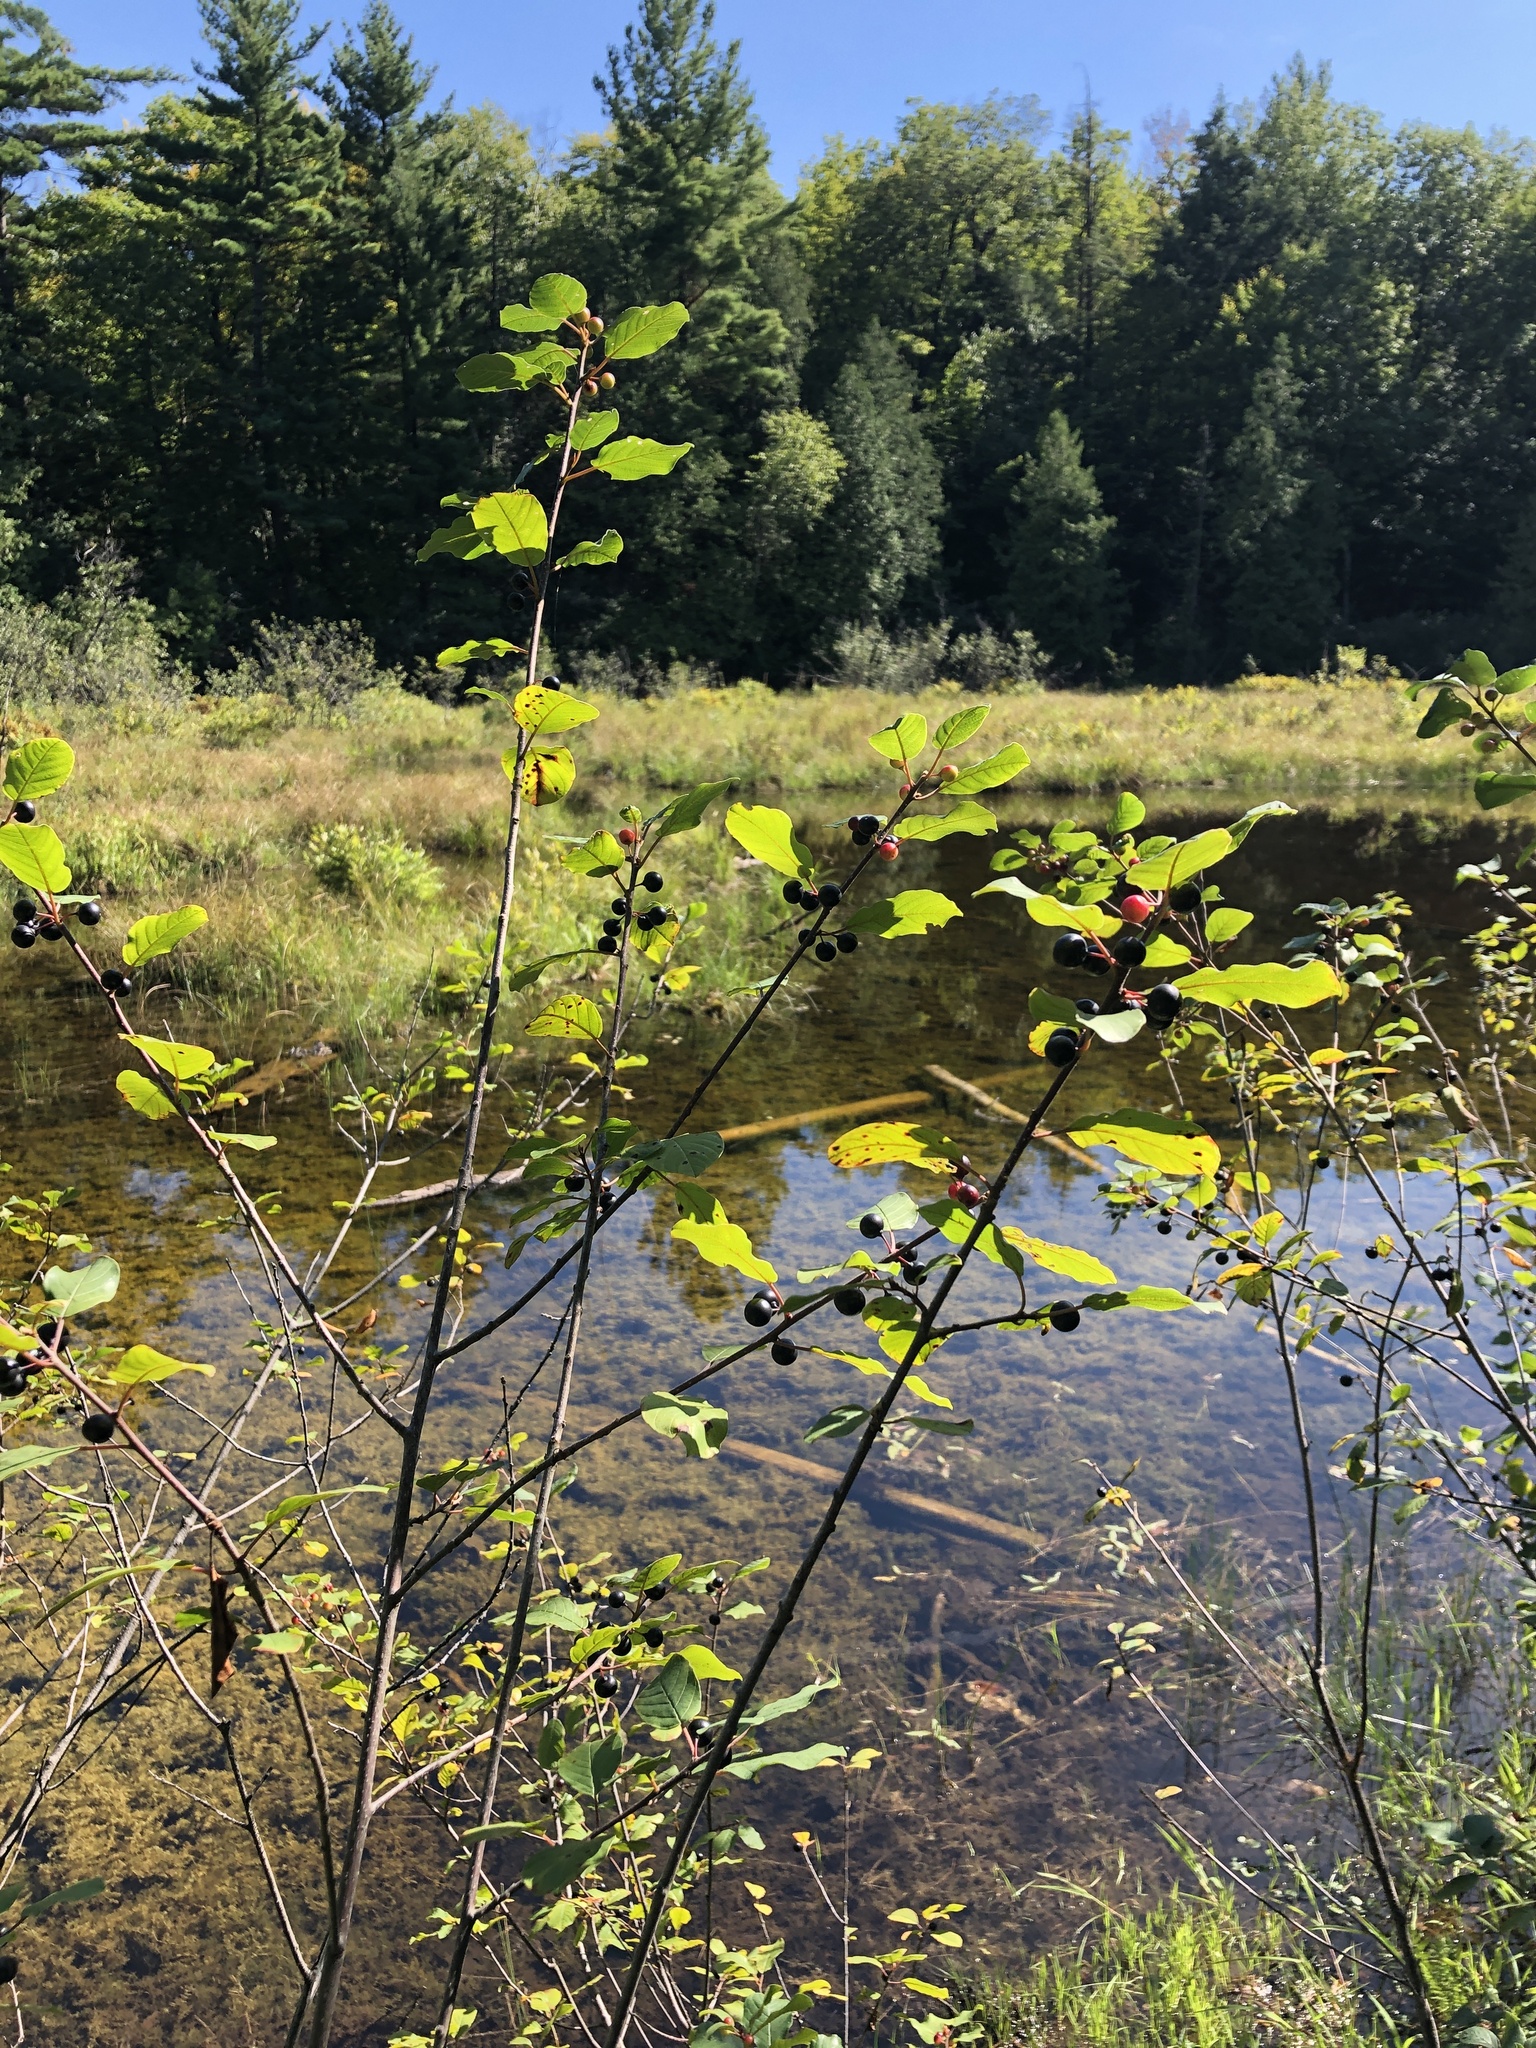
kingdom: Plantae
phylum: Tracheophyta
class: Magnoliopsida
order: Rosales
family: Rhamnaceae
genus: Frangula
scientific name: Frangula alnus
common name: Alder buckthorn
